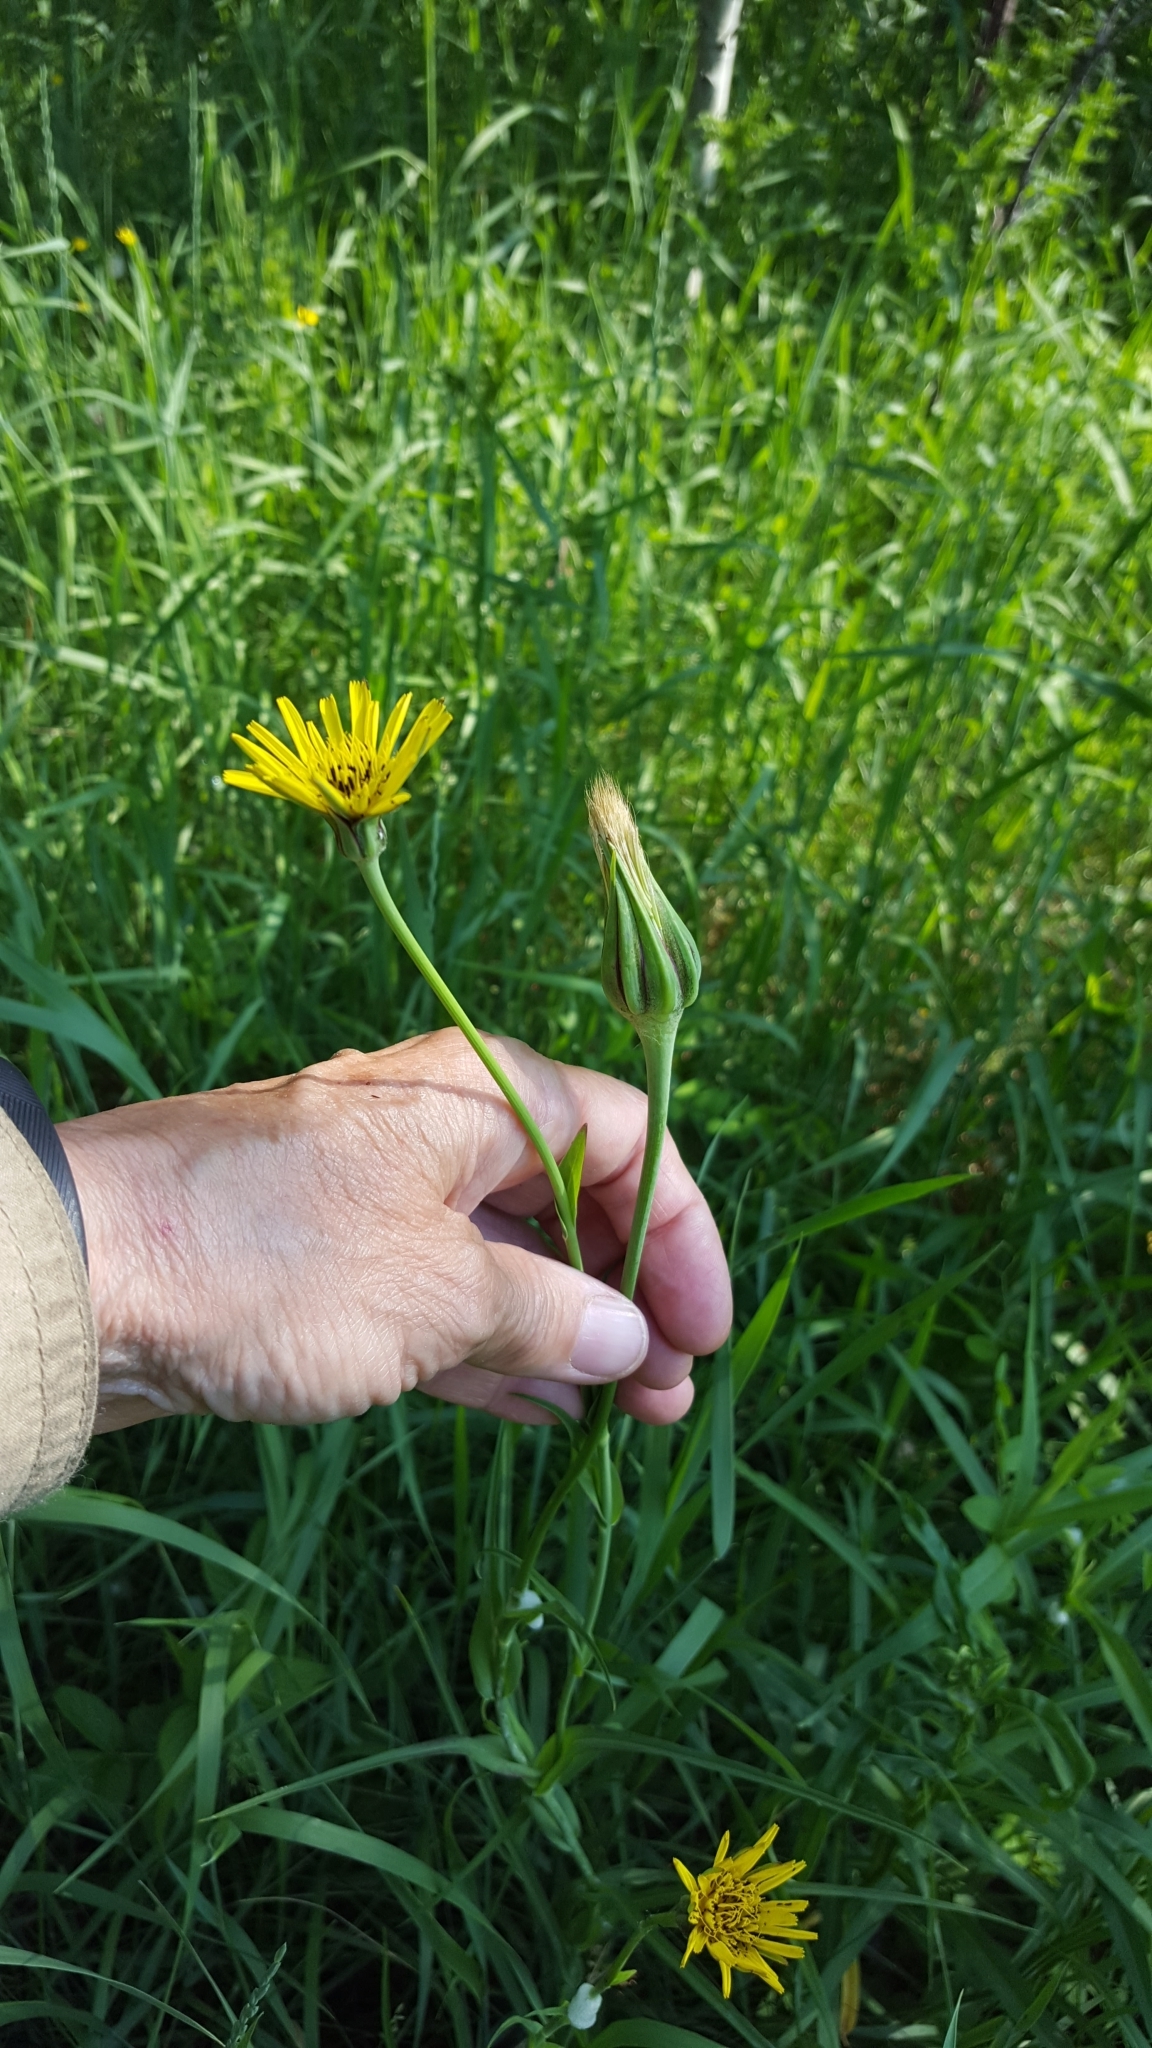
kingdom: Plantae
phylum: Tracheophyta
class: Magnoliopsida
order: Asterales
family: Asteraceae
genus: Tragopogon
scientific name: Tragopogon pratensis
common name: Goat's-beard
